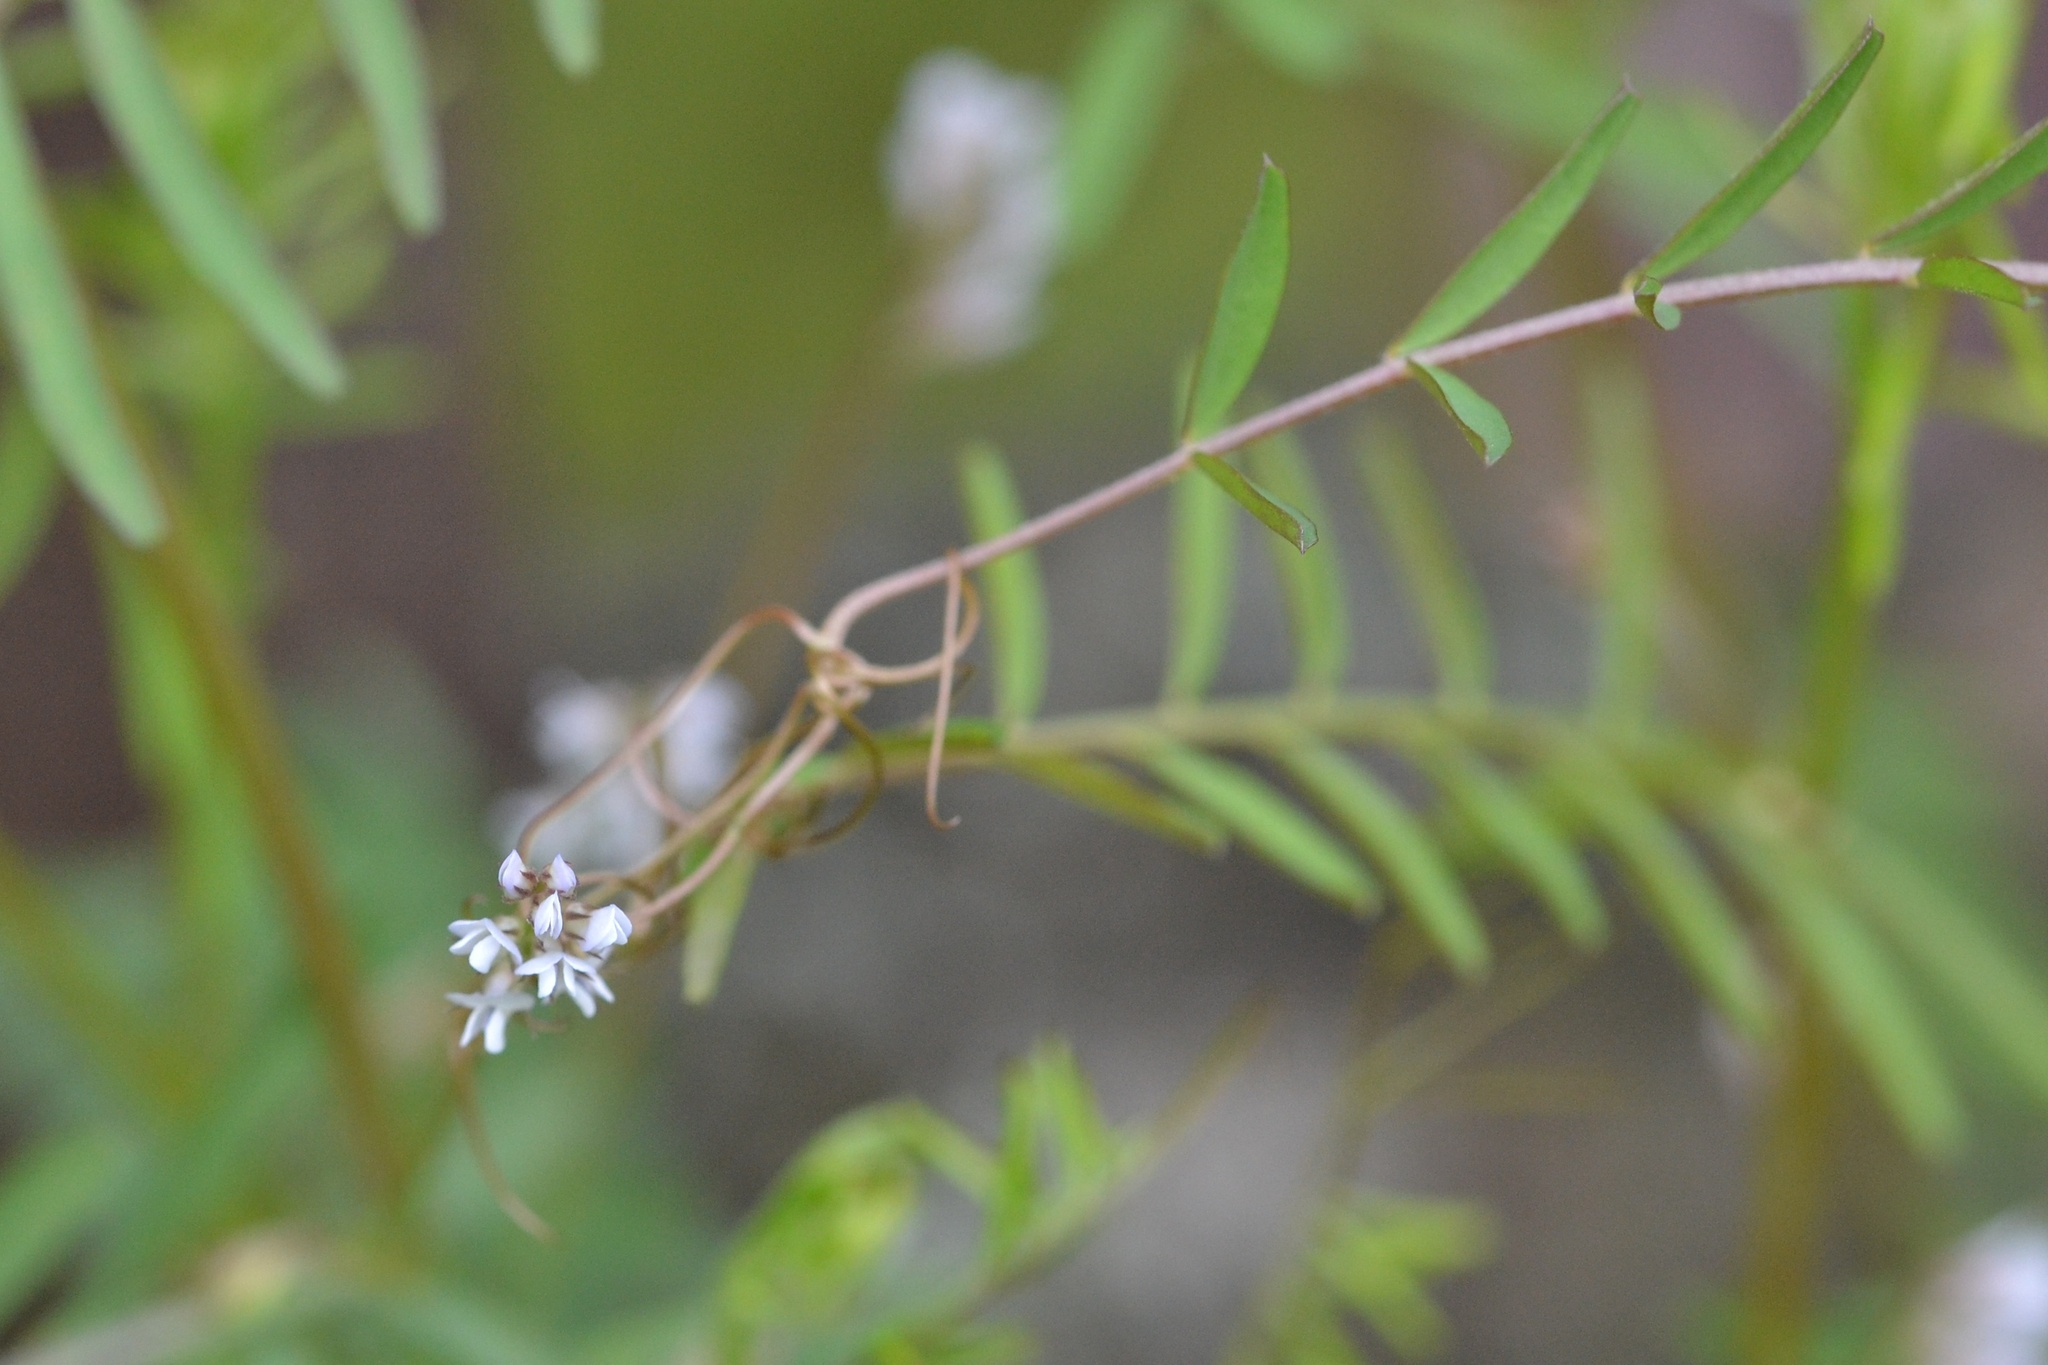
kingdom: Plantae
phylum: Tracheophyta
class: Magnoliopsida
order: Fabales
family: Fabaceae
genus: Vicia
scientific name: Vicia hirsuta
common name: Tiny vetch
